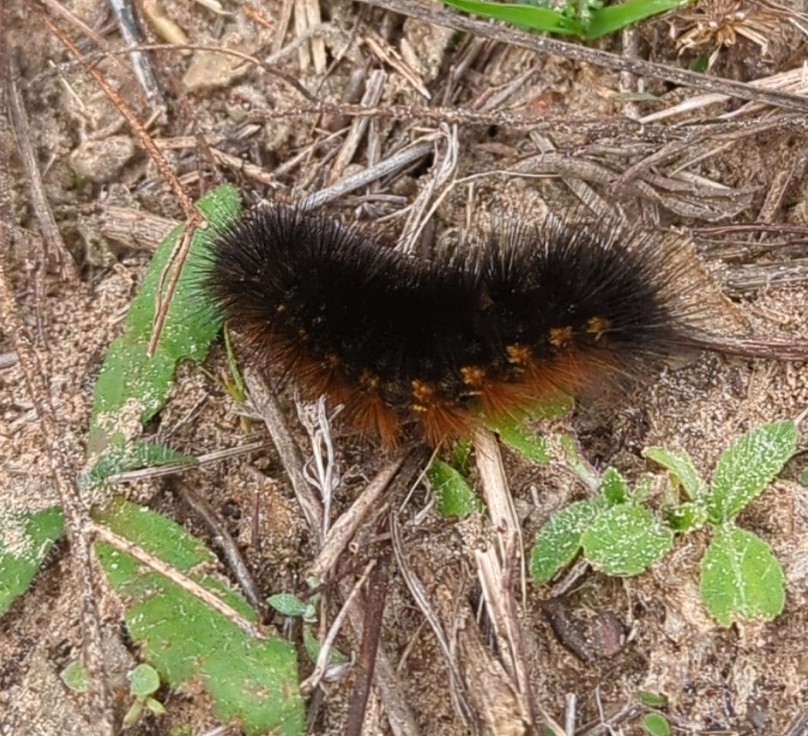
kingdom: Animalia
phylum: Arthropoda
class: Insecta
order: Lepidoptera
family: Erebidae
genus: Estigmene
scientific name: Estigmene acrea
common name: Salt marsh moth
